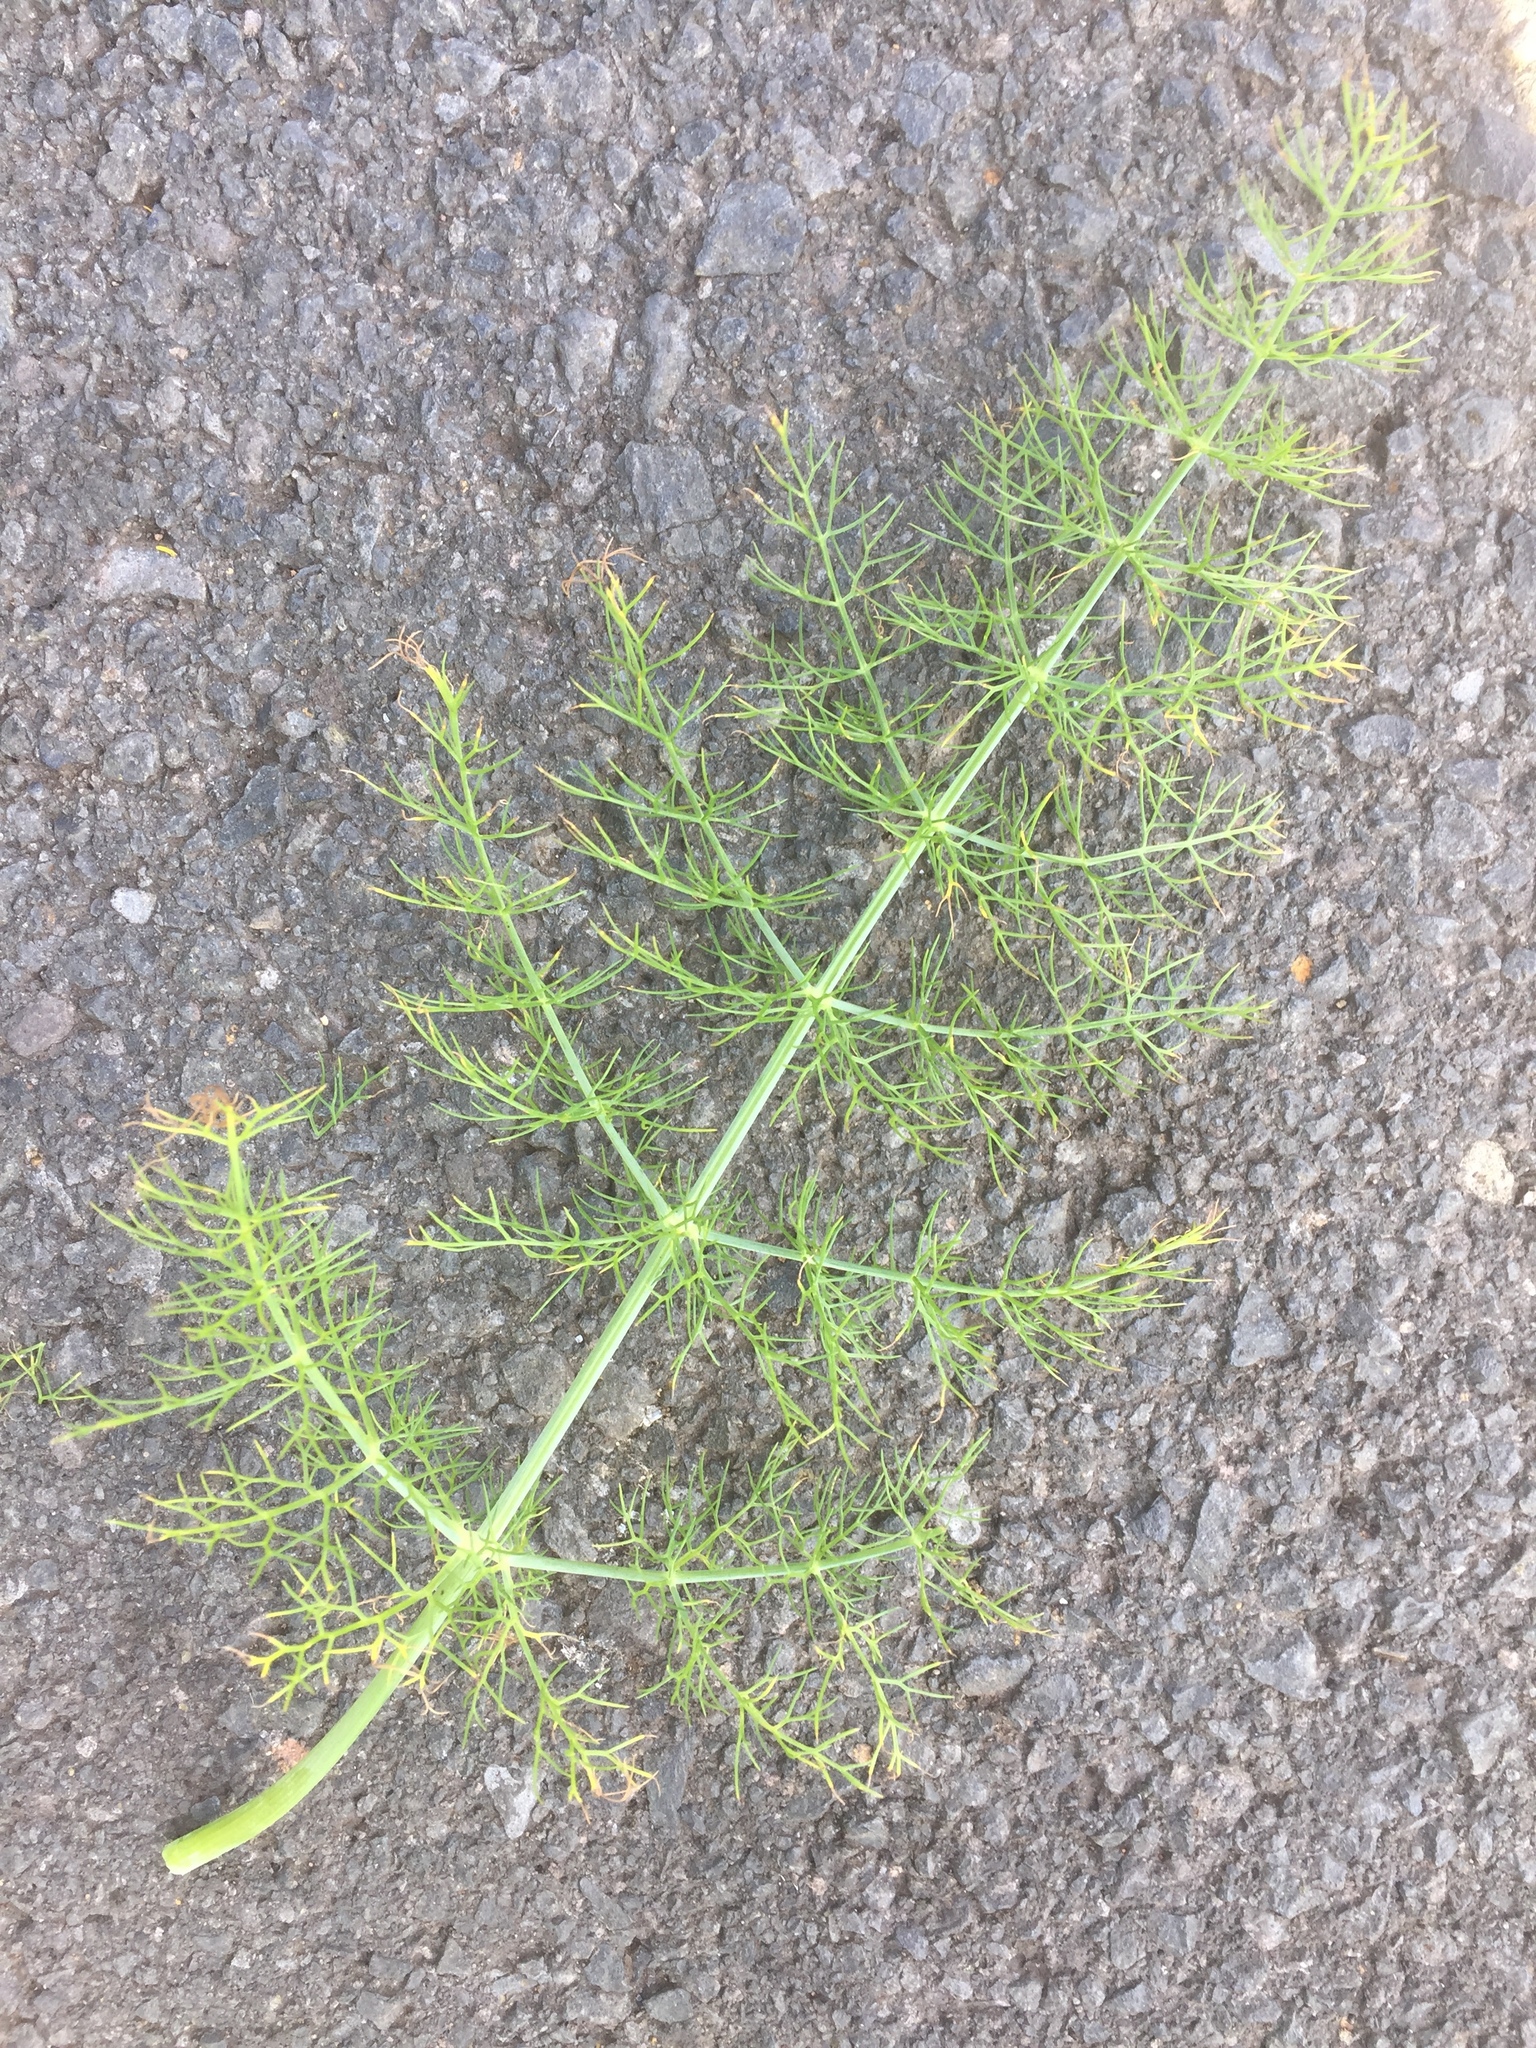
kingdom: Plantae
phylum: Tracheophyta
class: Magnoliopsida
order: Apiales
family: Apiaceae
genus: Foeniculum
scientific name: Foeniculum vulgare
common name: Fennel
